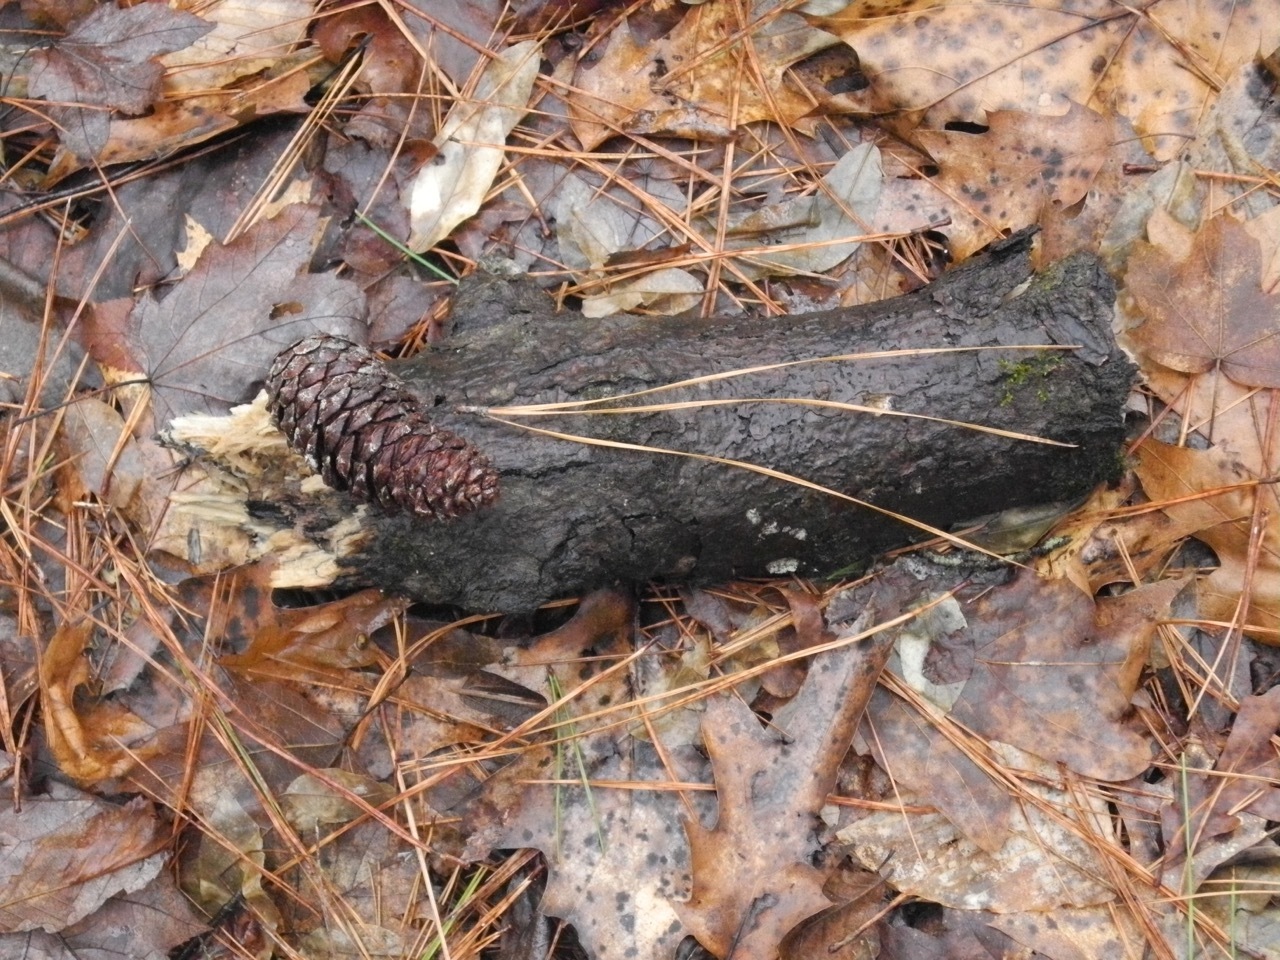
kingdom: Plantae
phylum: Tracheophyta
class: Pinopsida
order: Pinales
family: Pinaceae
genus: Pinus
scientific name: Pinus taeda
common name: Loblolly pine
